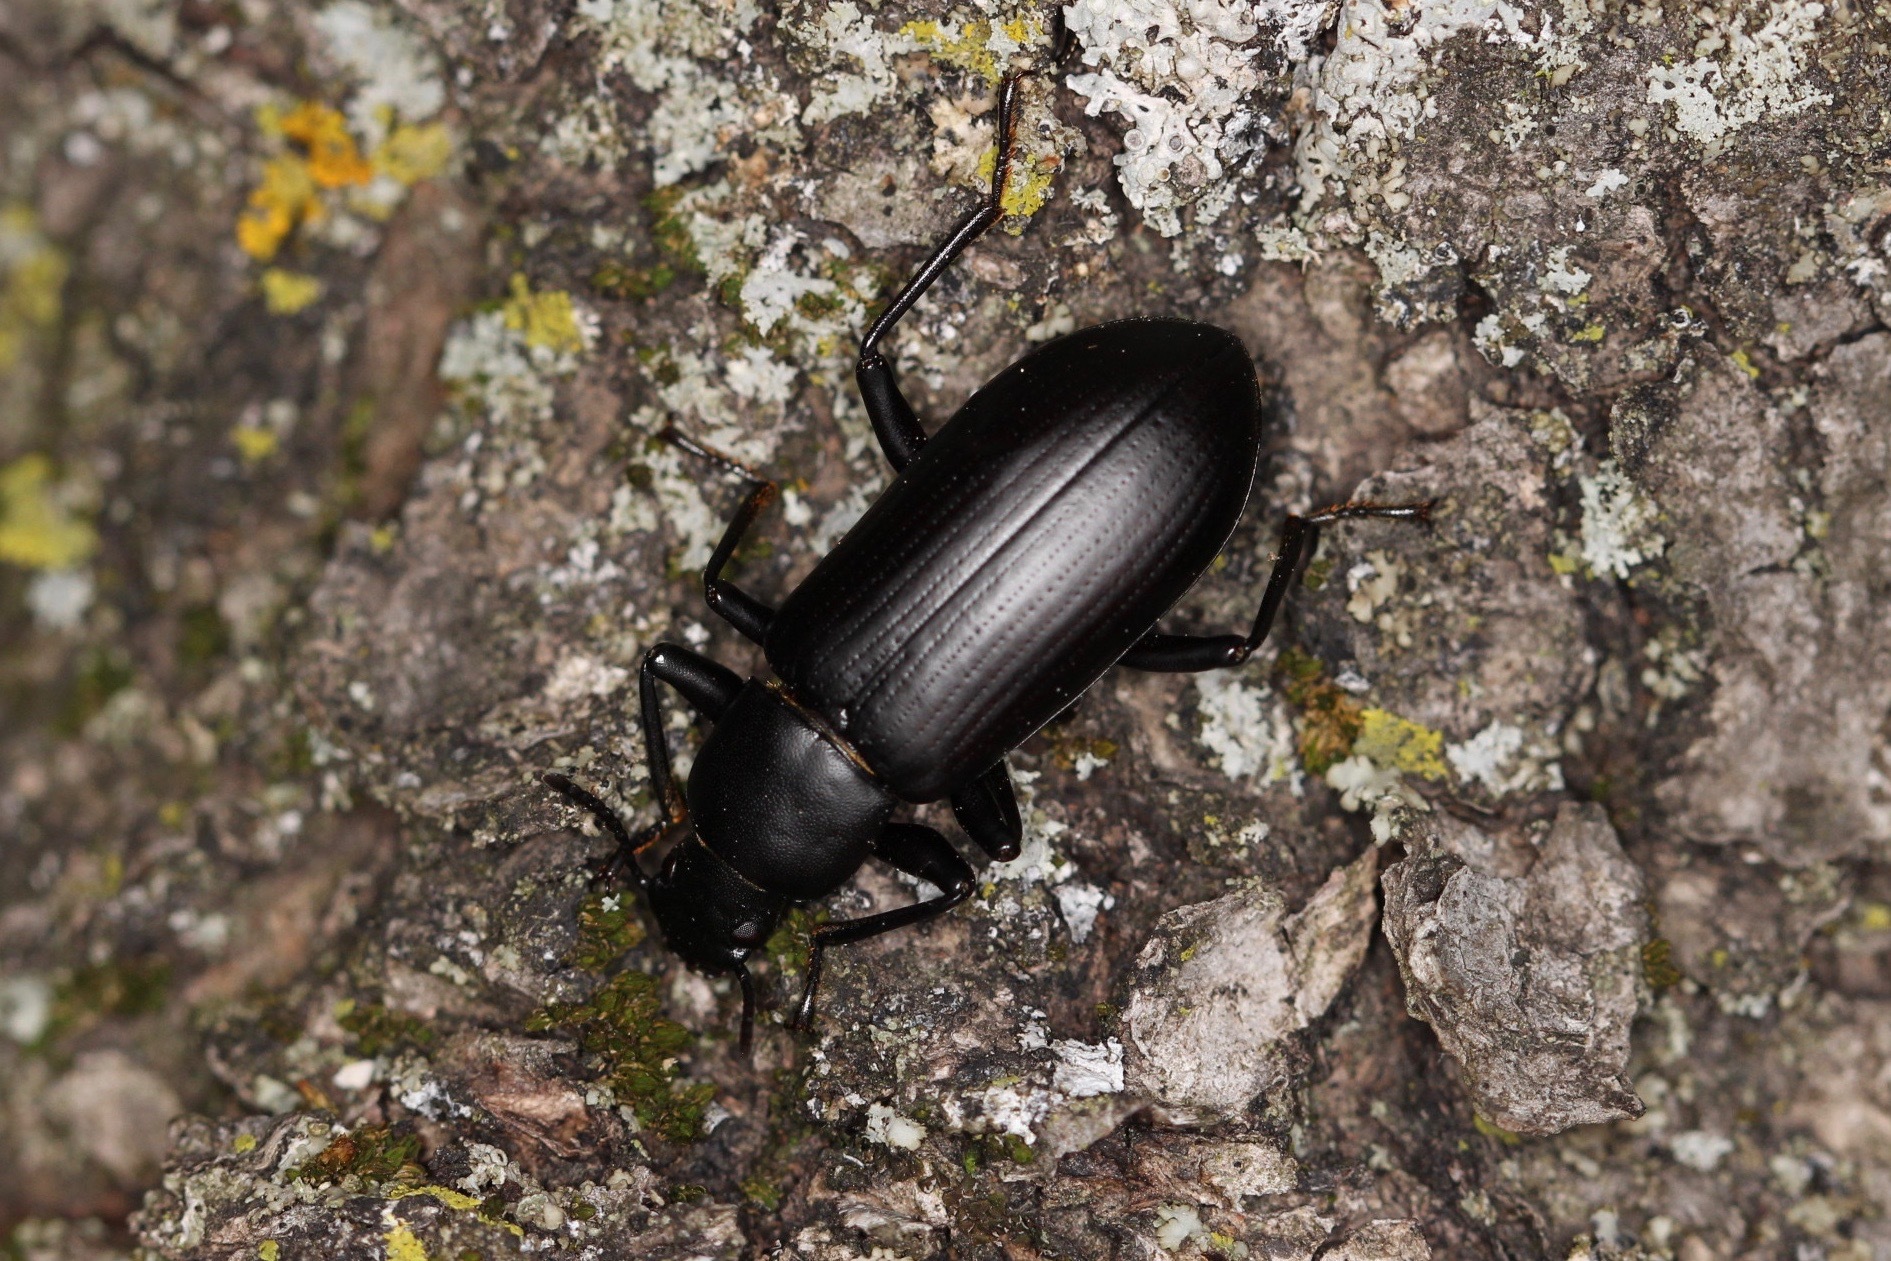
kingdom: Animalia
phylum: Arthropoda
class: Insecta
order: Coleoptera
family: Tenebrionidae
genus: Alobates
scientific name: Alobates pensylvanicus
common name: False mealworm beetle
